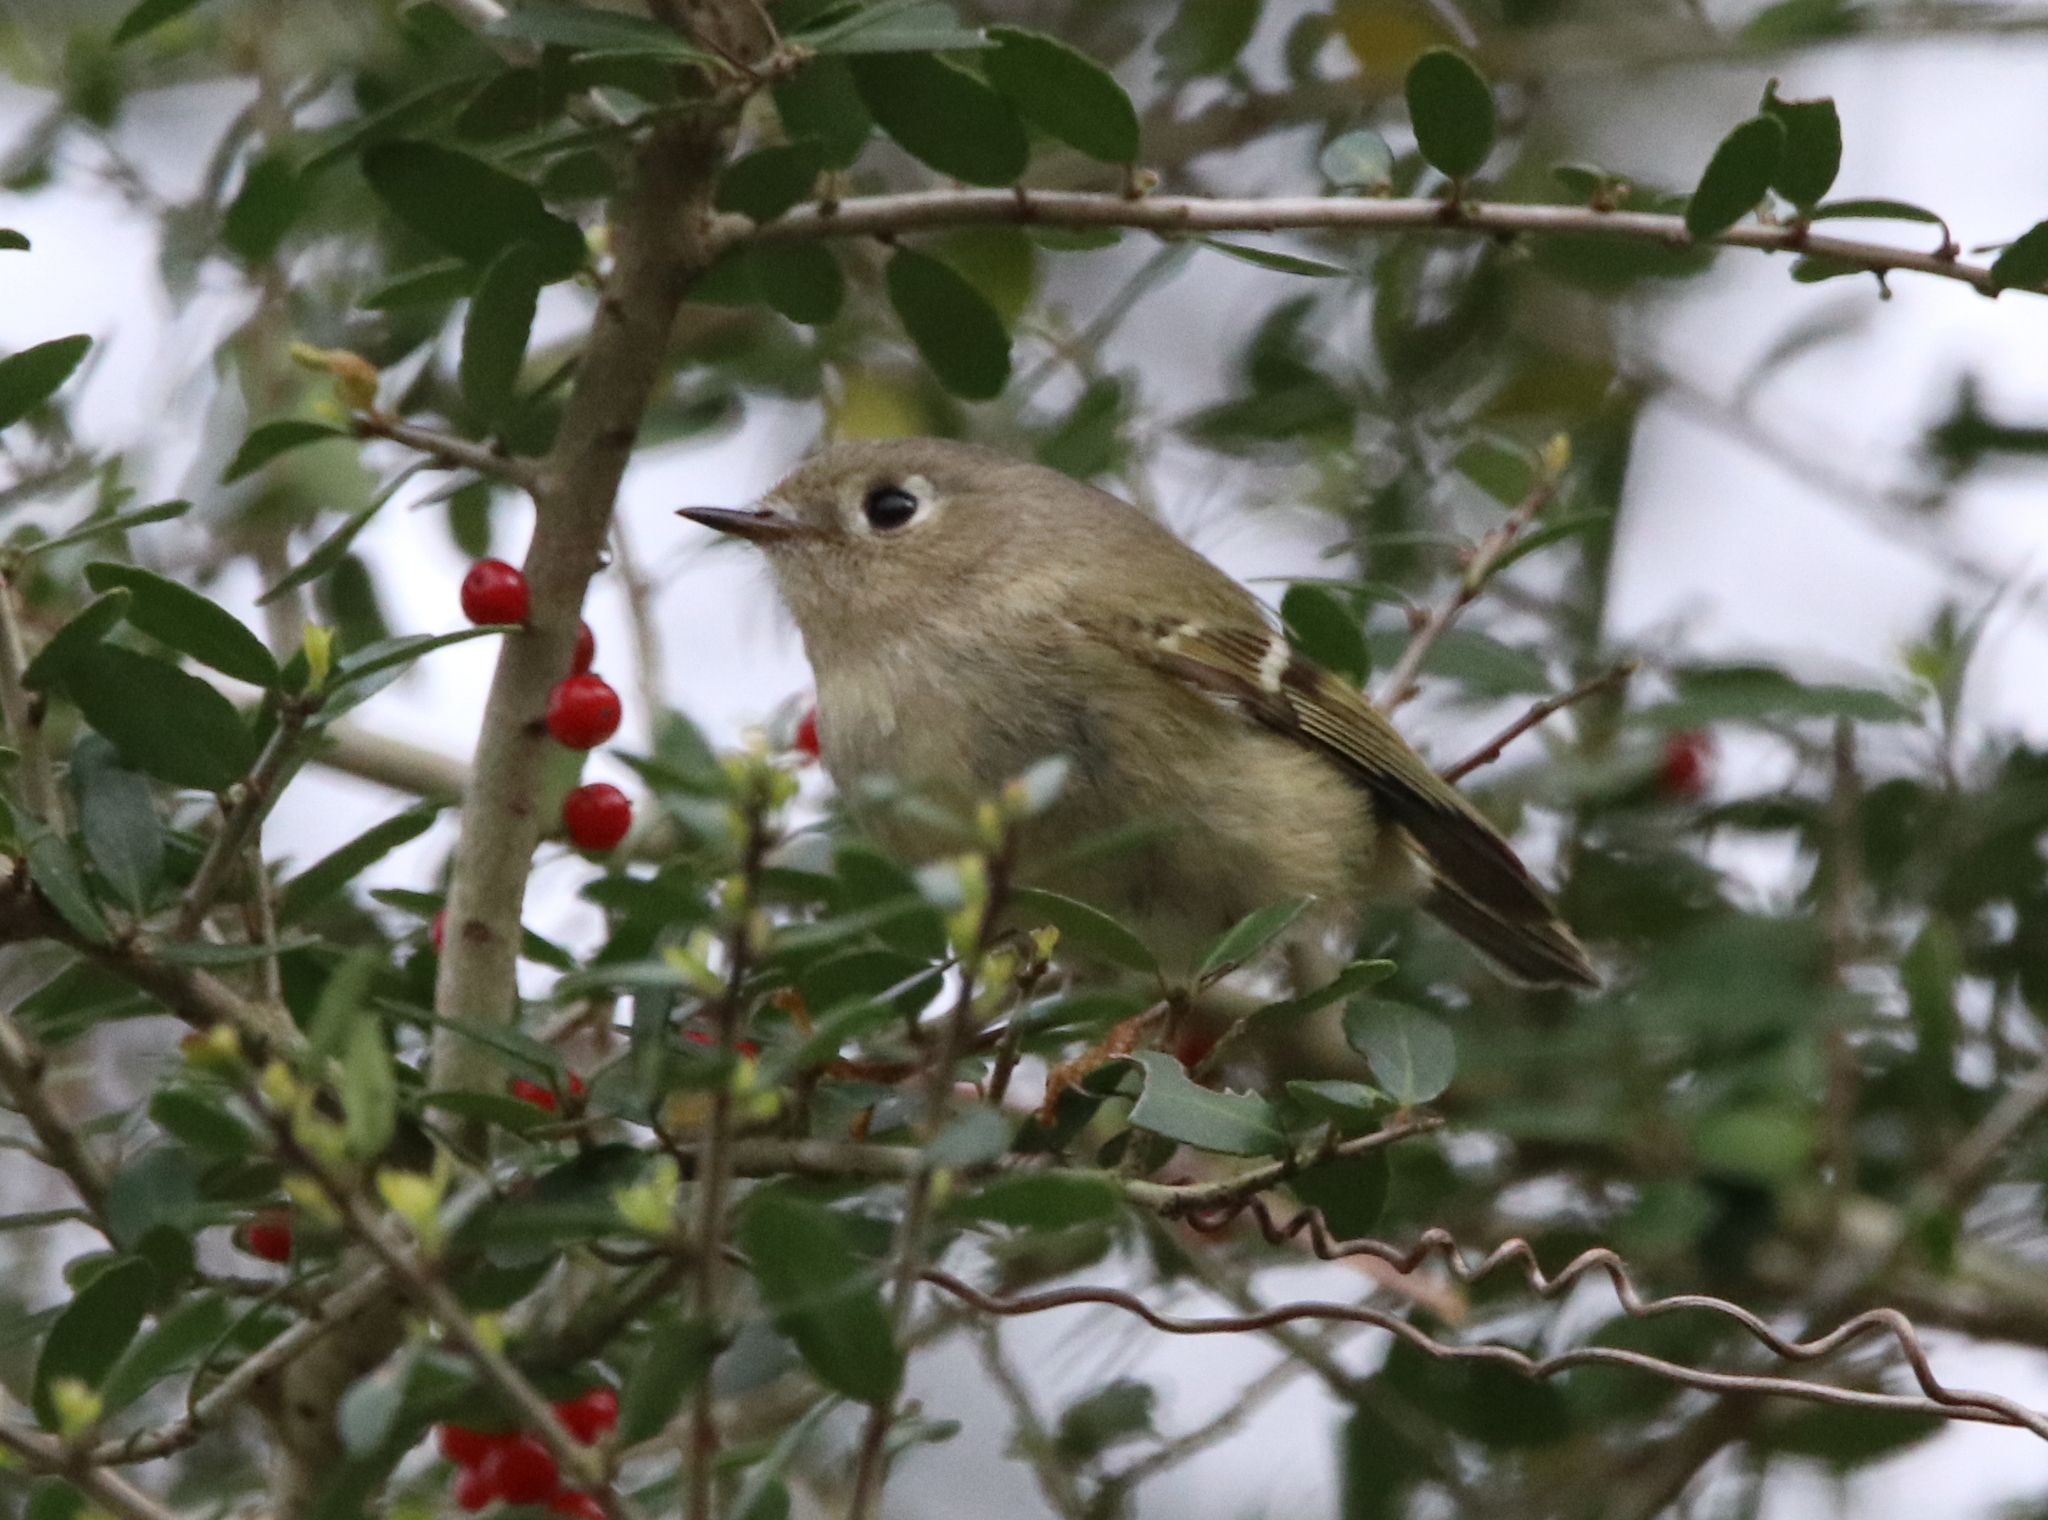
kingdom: Animalia
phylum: Chordata
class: Aves
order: Passeriformes
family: Regulidae
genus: Regulus
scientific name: Regulus calendula
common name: Ruby-crowned kinglet
